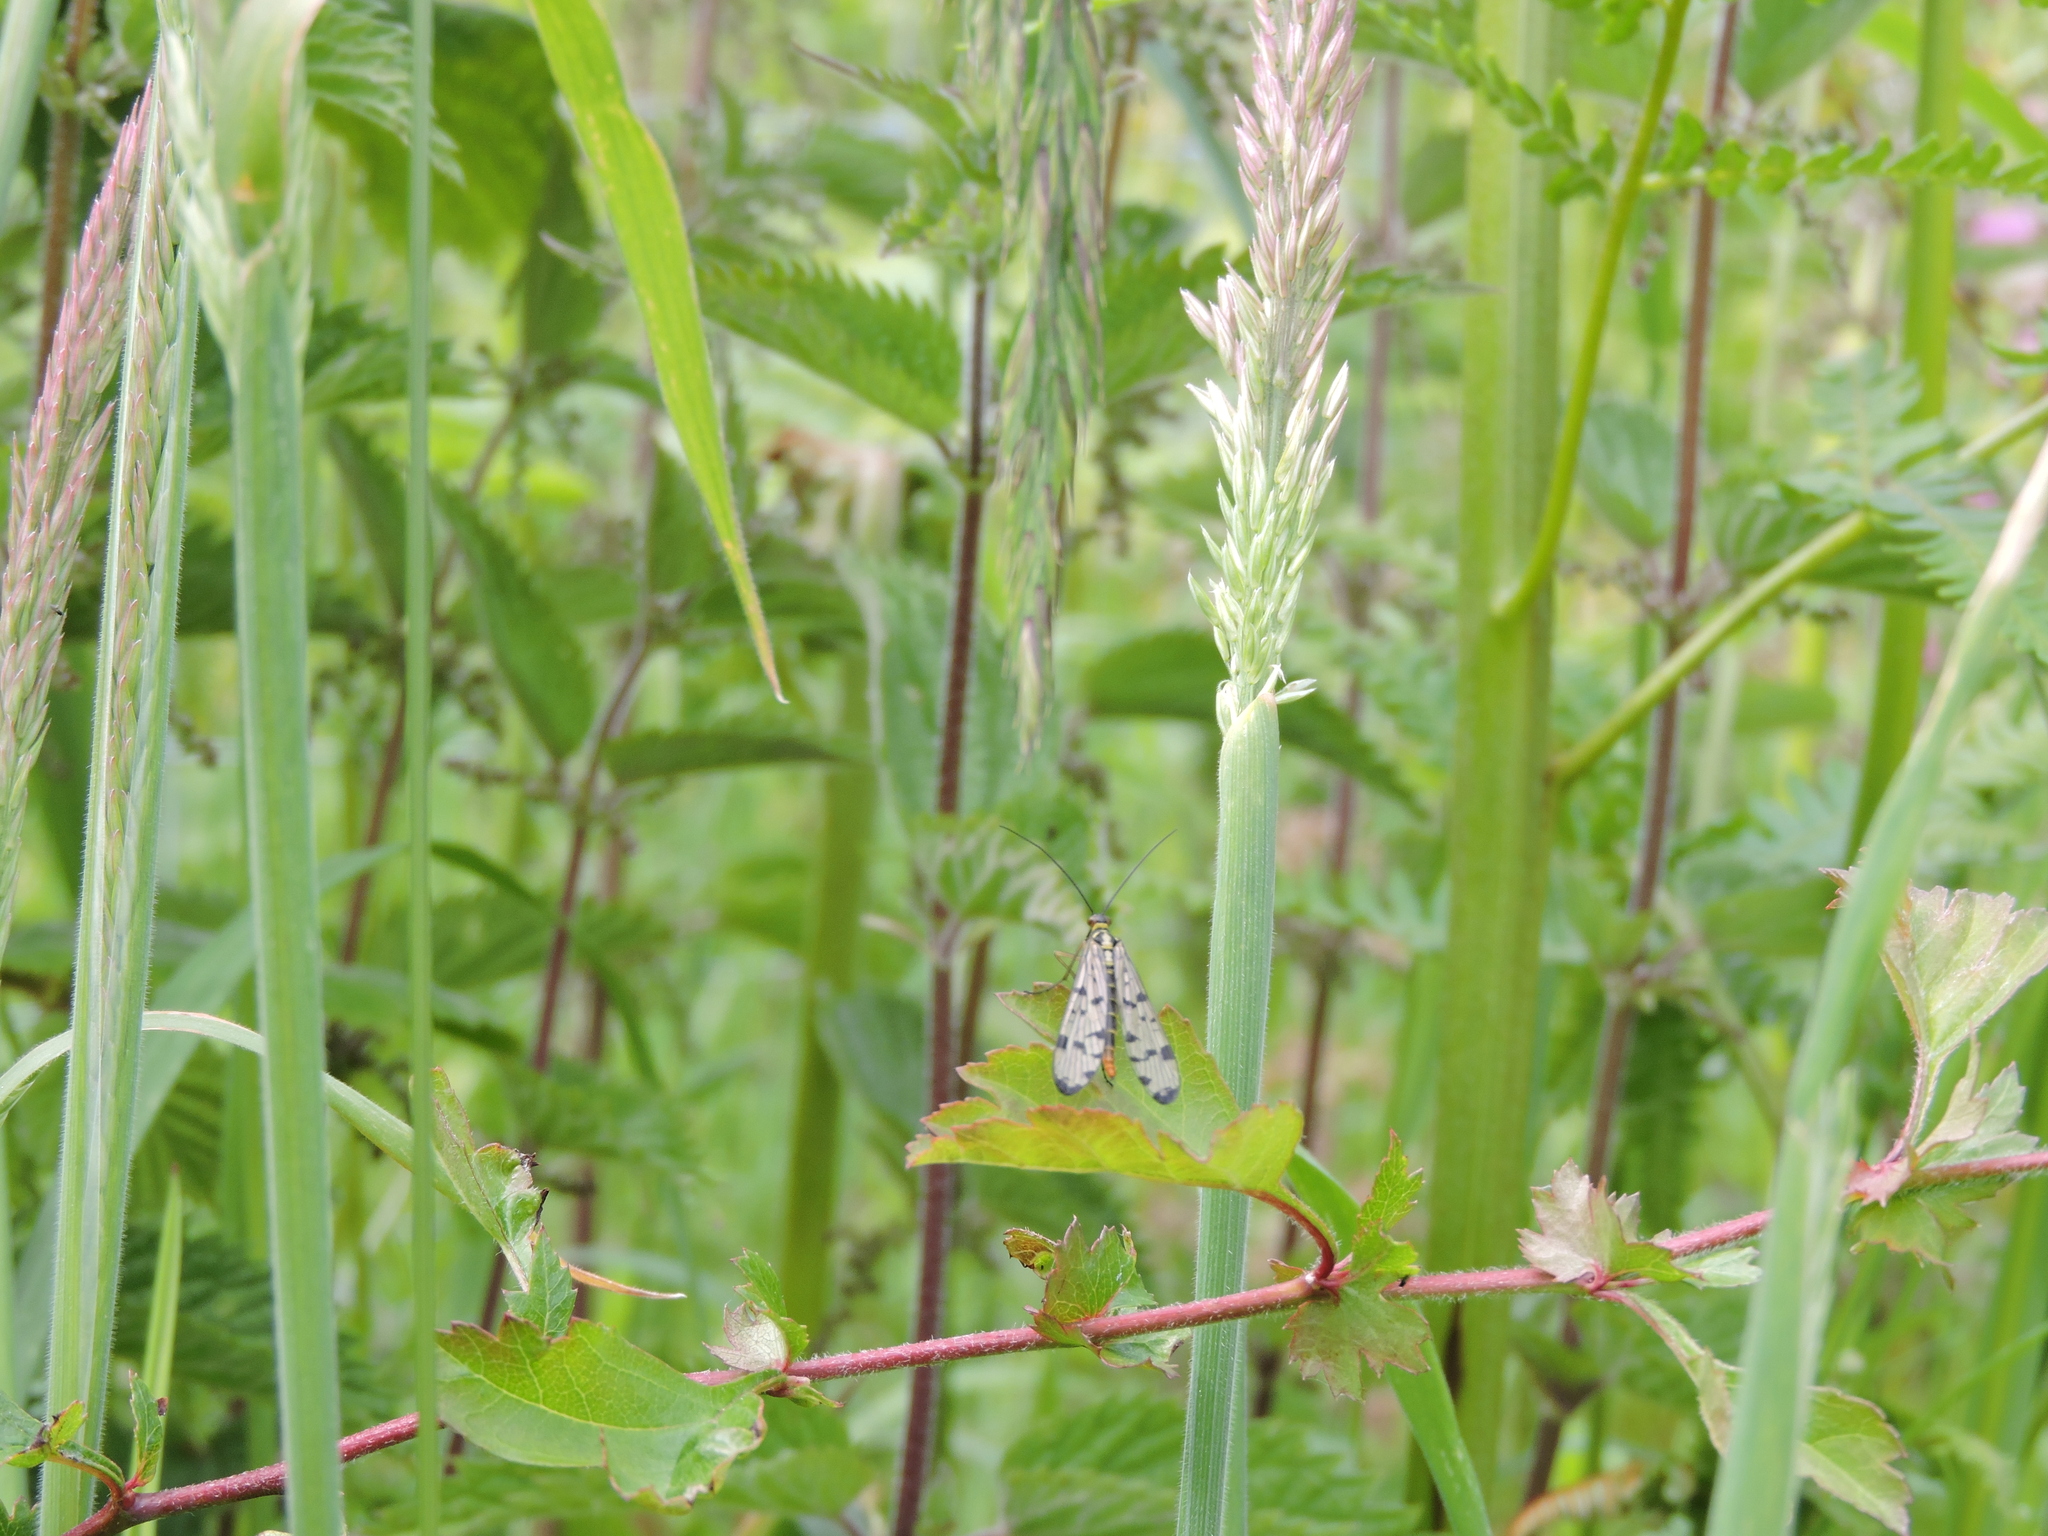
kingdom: Animalia
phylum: Arthropoda
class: Insecta
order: Mecoptera
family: Panorpidae
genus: Panorpa
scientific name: Panorpa
